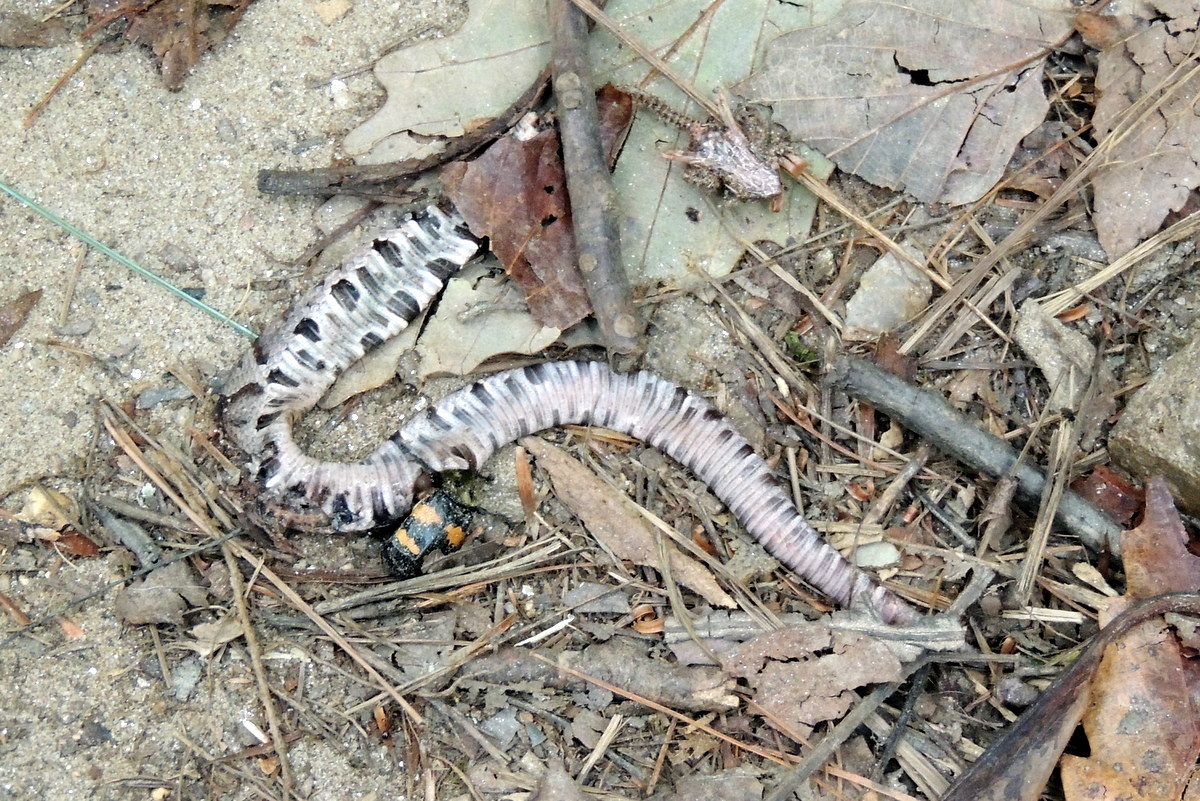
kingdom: Animalia
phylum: Chordata
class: Squamata
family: Viperidae
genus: Agkistrodon
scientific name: Agkistrodon contortrix
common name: Northern copperhead
